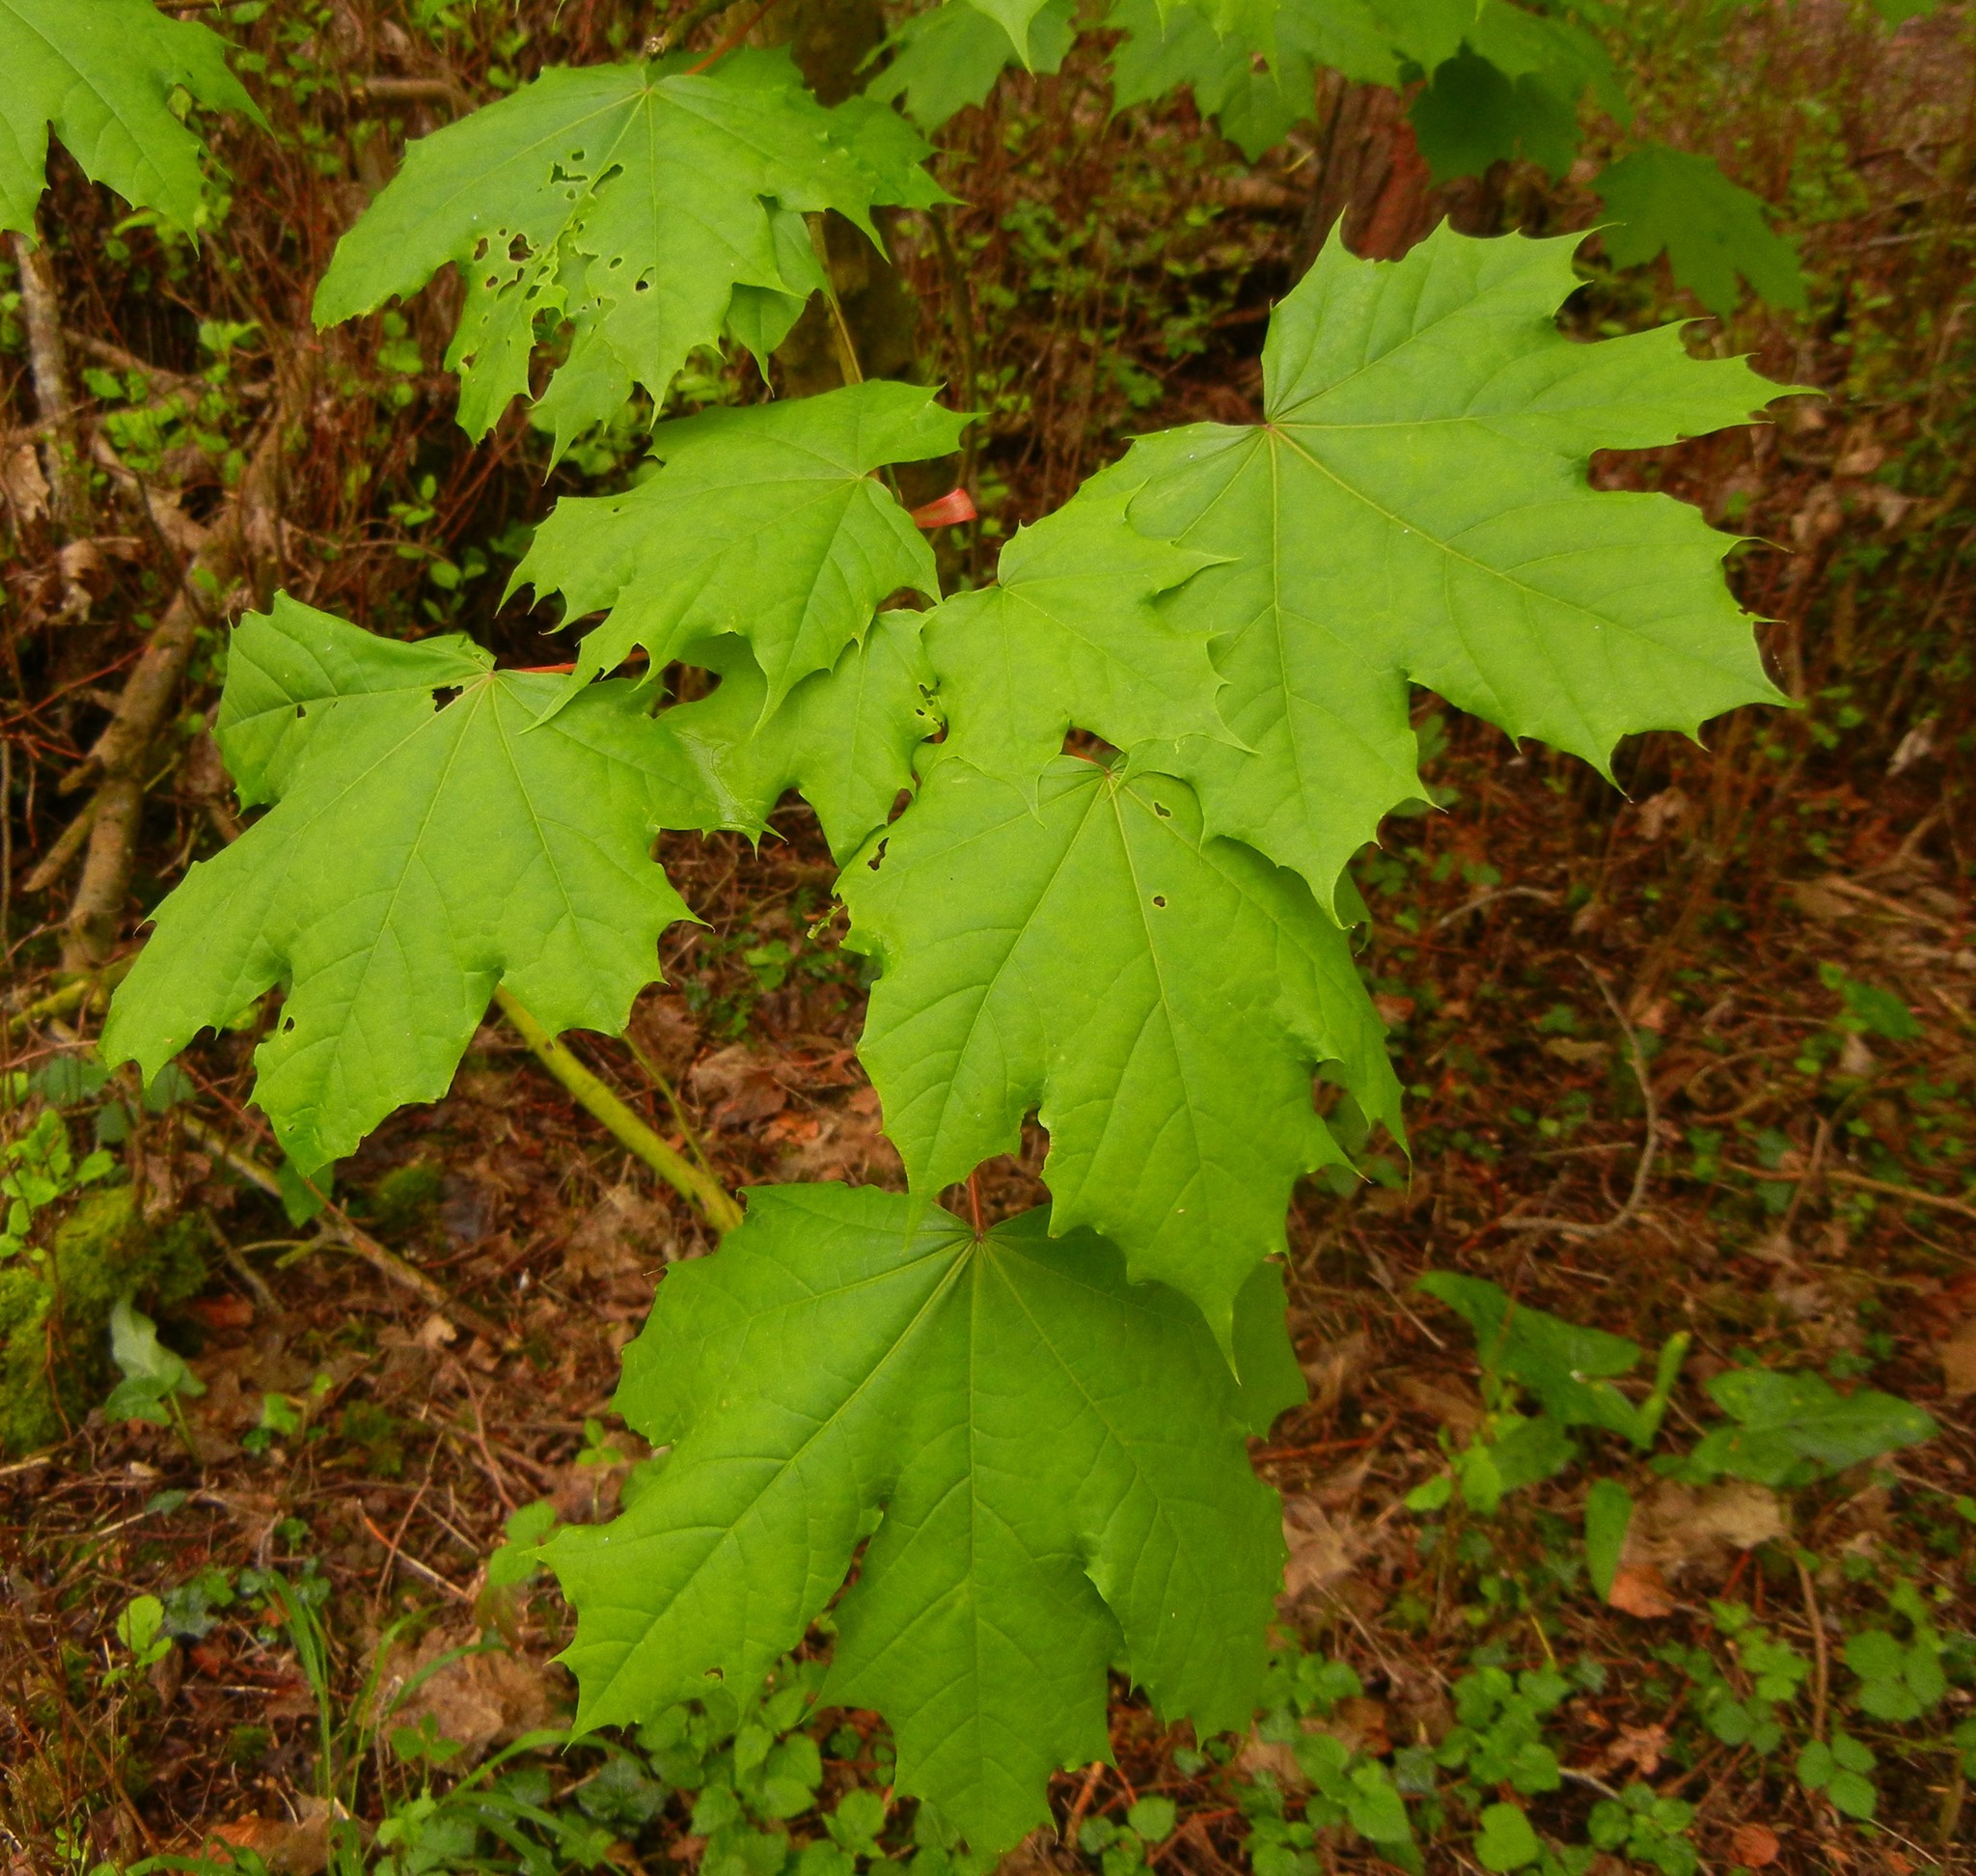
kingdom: Plantae
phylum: Tracheophyta
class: Magnoliopsida
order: Sapindales
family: Sapindaceae
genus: Acer
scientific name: Acer platanoides
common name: Norway maple
